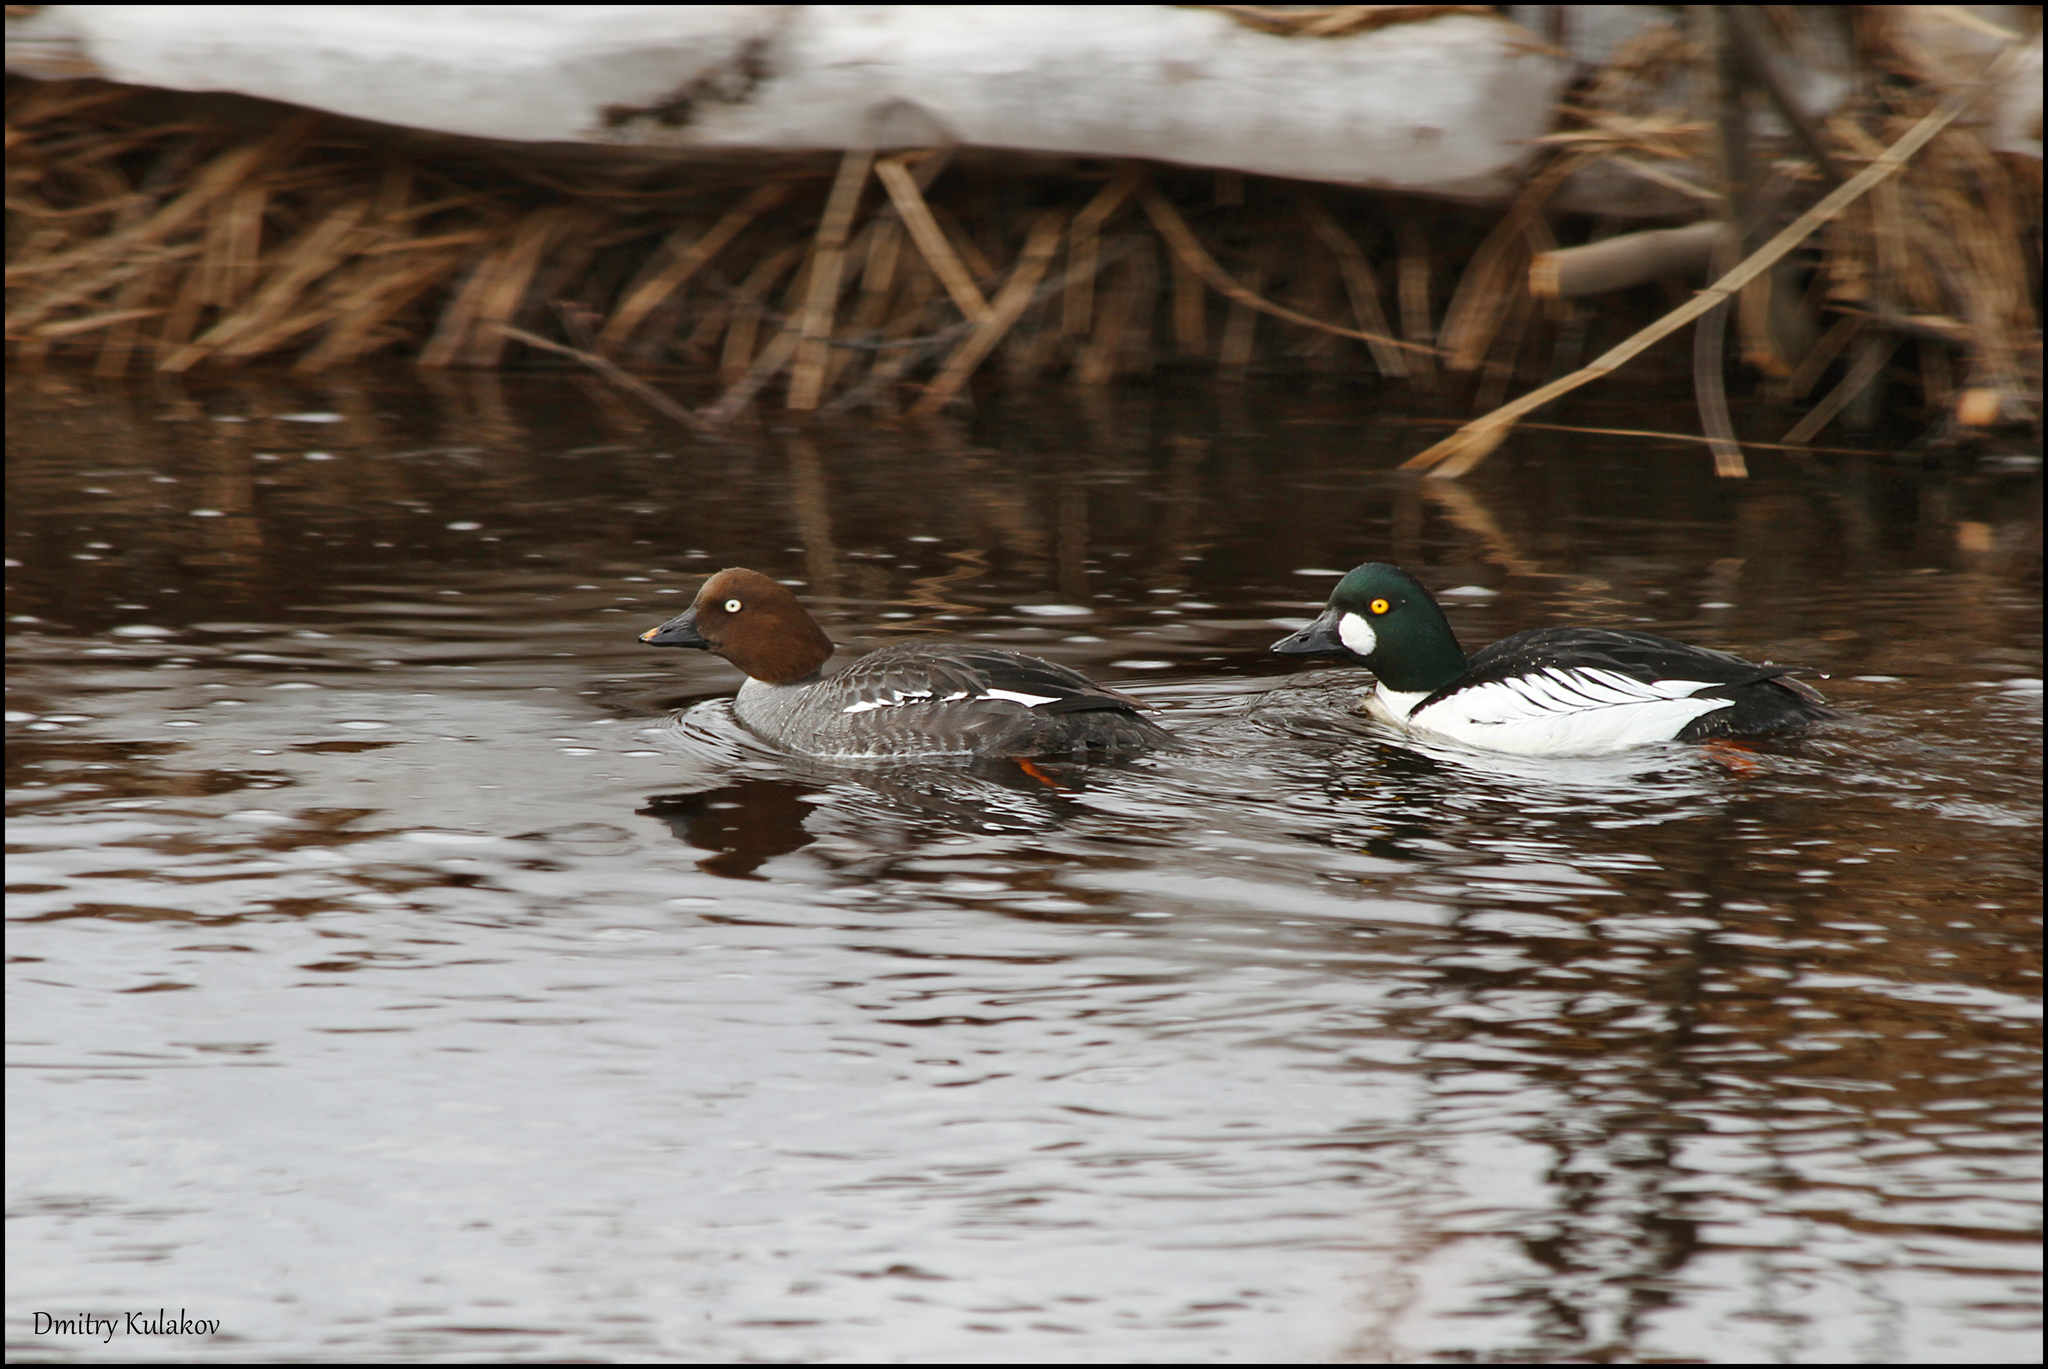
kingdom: Animalia
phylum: Chordata
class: Aves
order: Anseriformes
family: Anatidae
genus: Bucephala
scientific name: Bucephala clangula
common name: Common goldeneye
